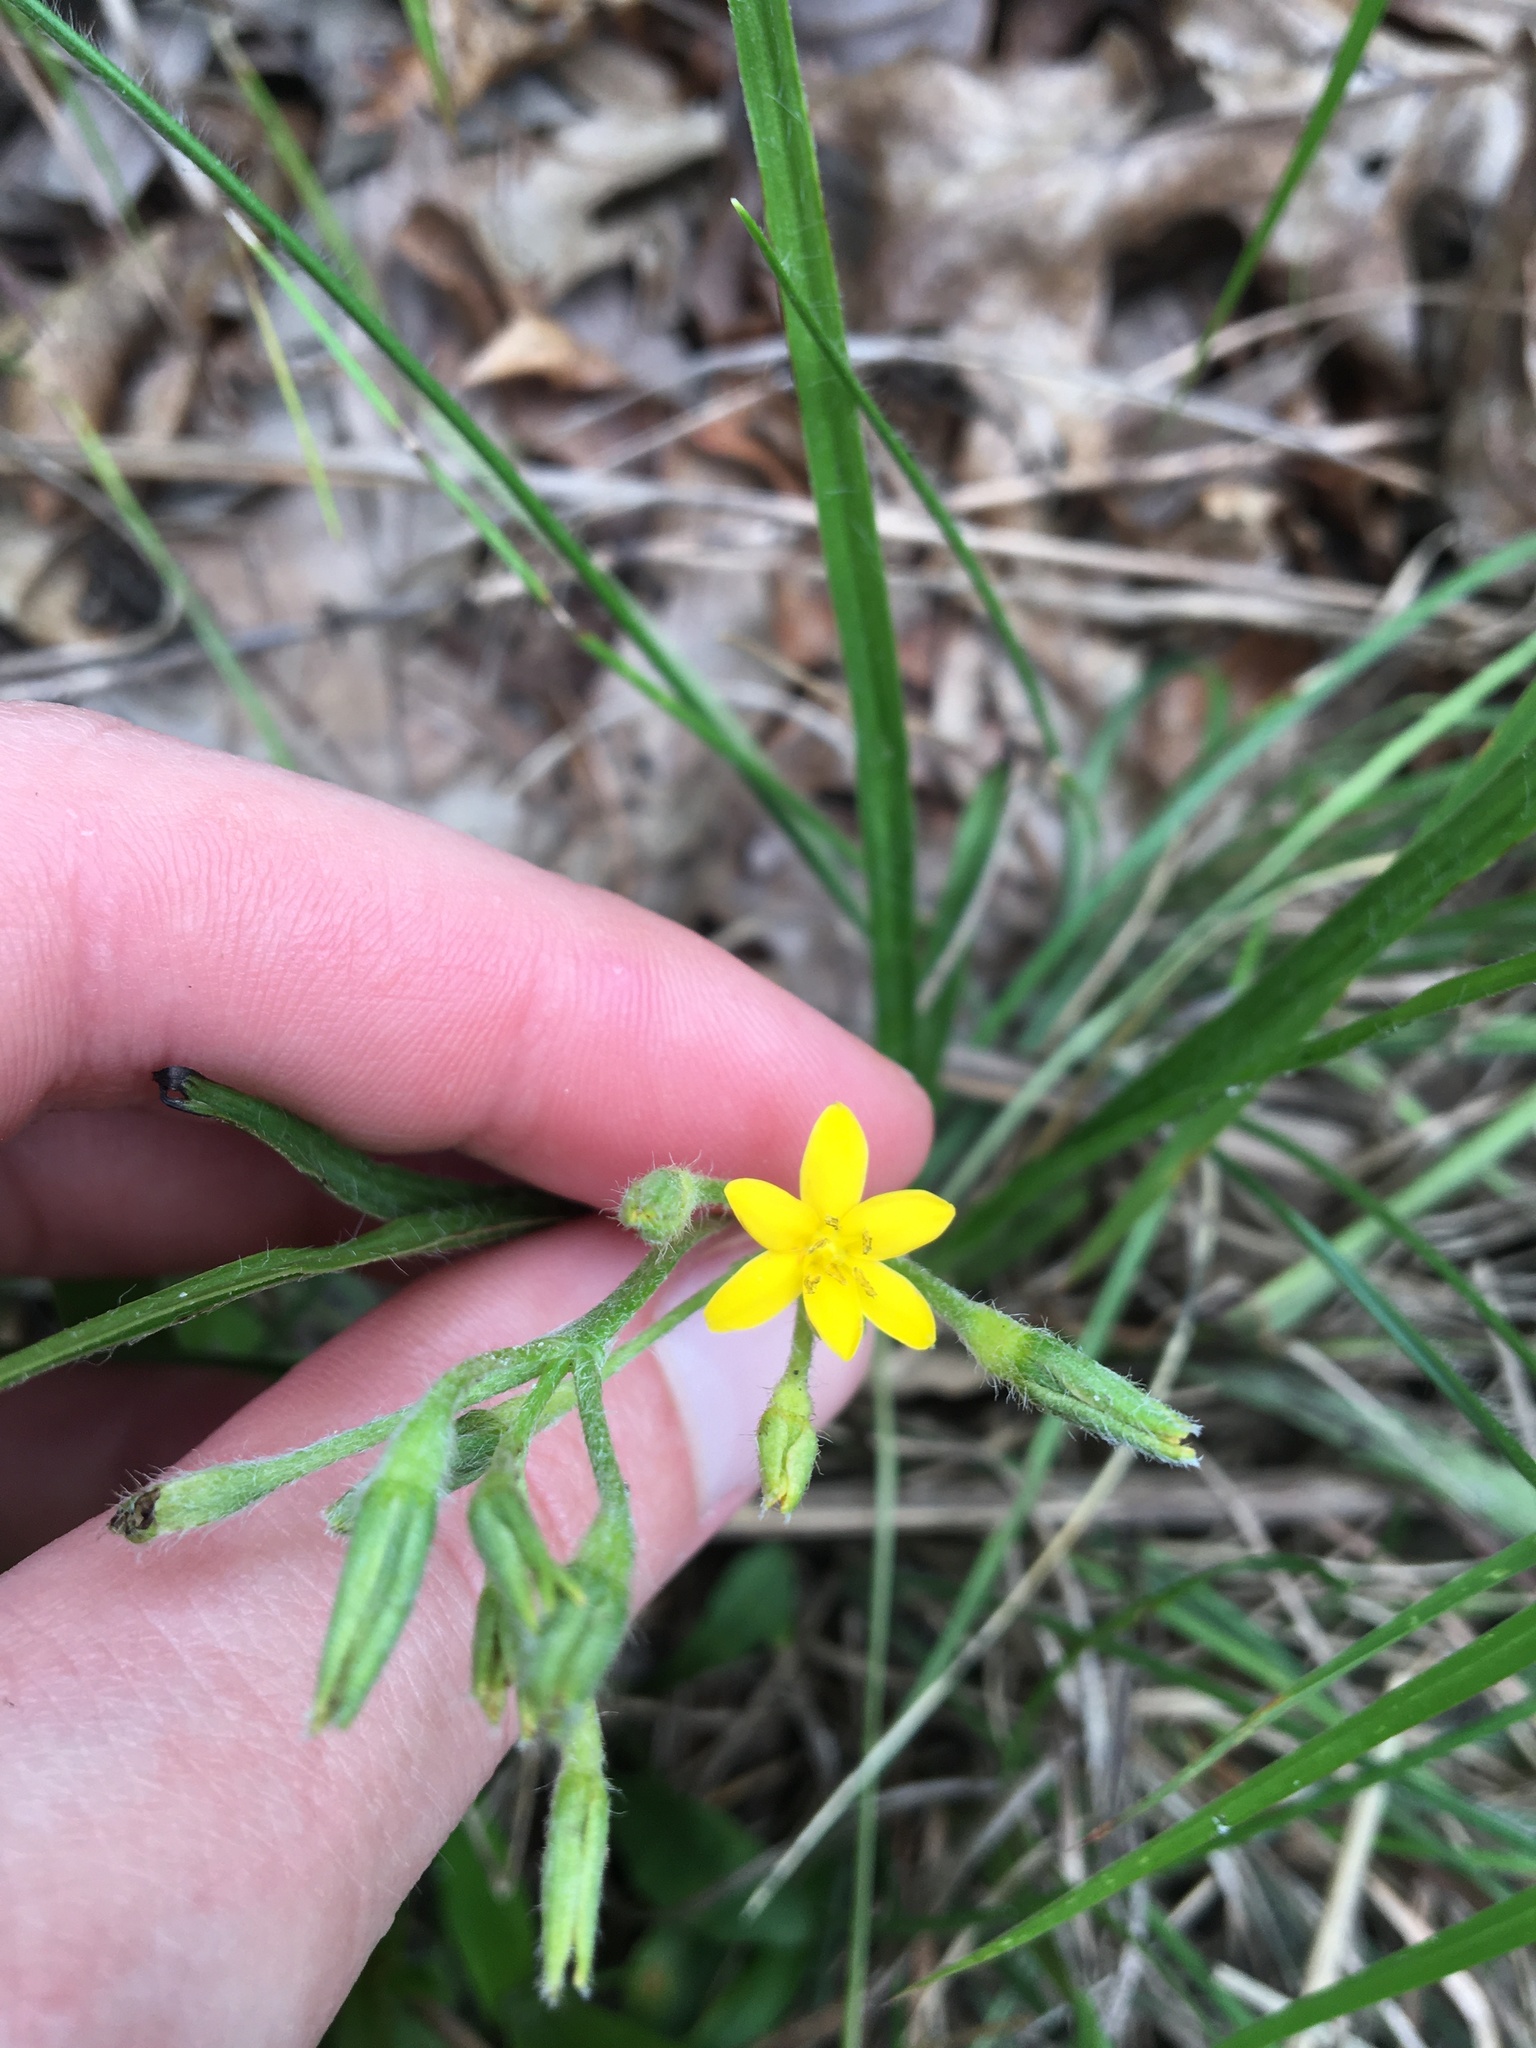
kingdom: Plantae
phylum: Tracheophyta
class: Liliopsida
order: Asparagales
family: Hypoxidaceae
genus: Hypoxis
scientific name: Hypoxis hirsuta
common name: Common goldstar
